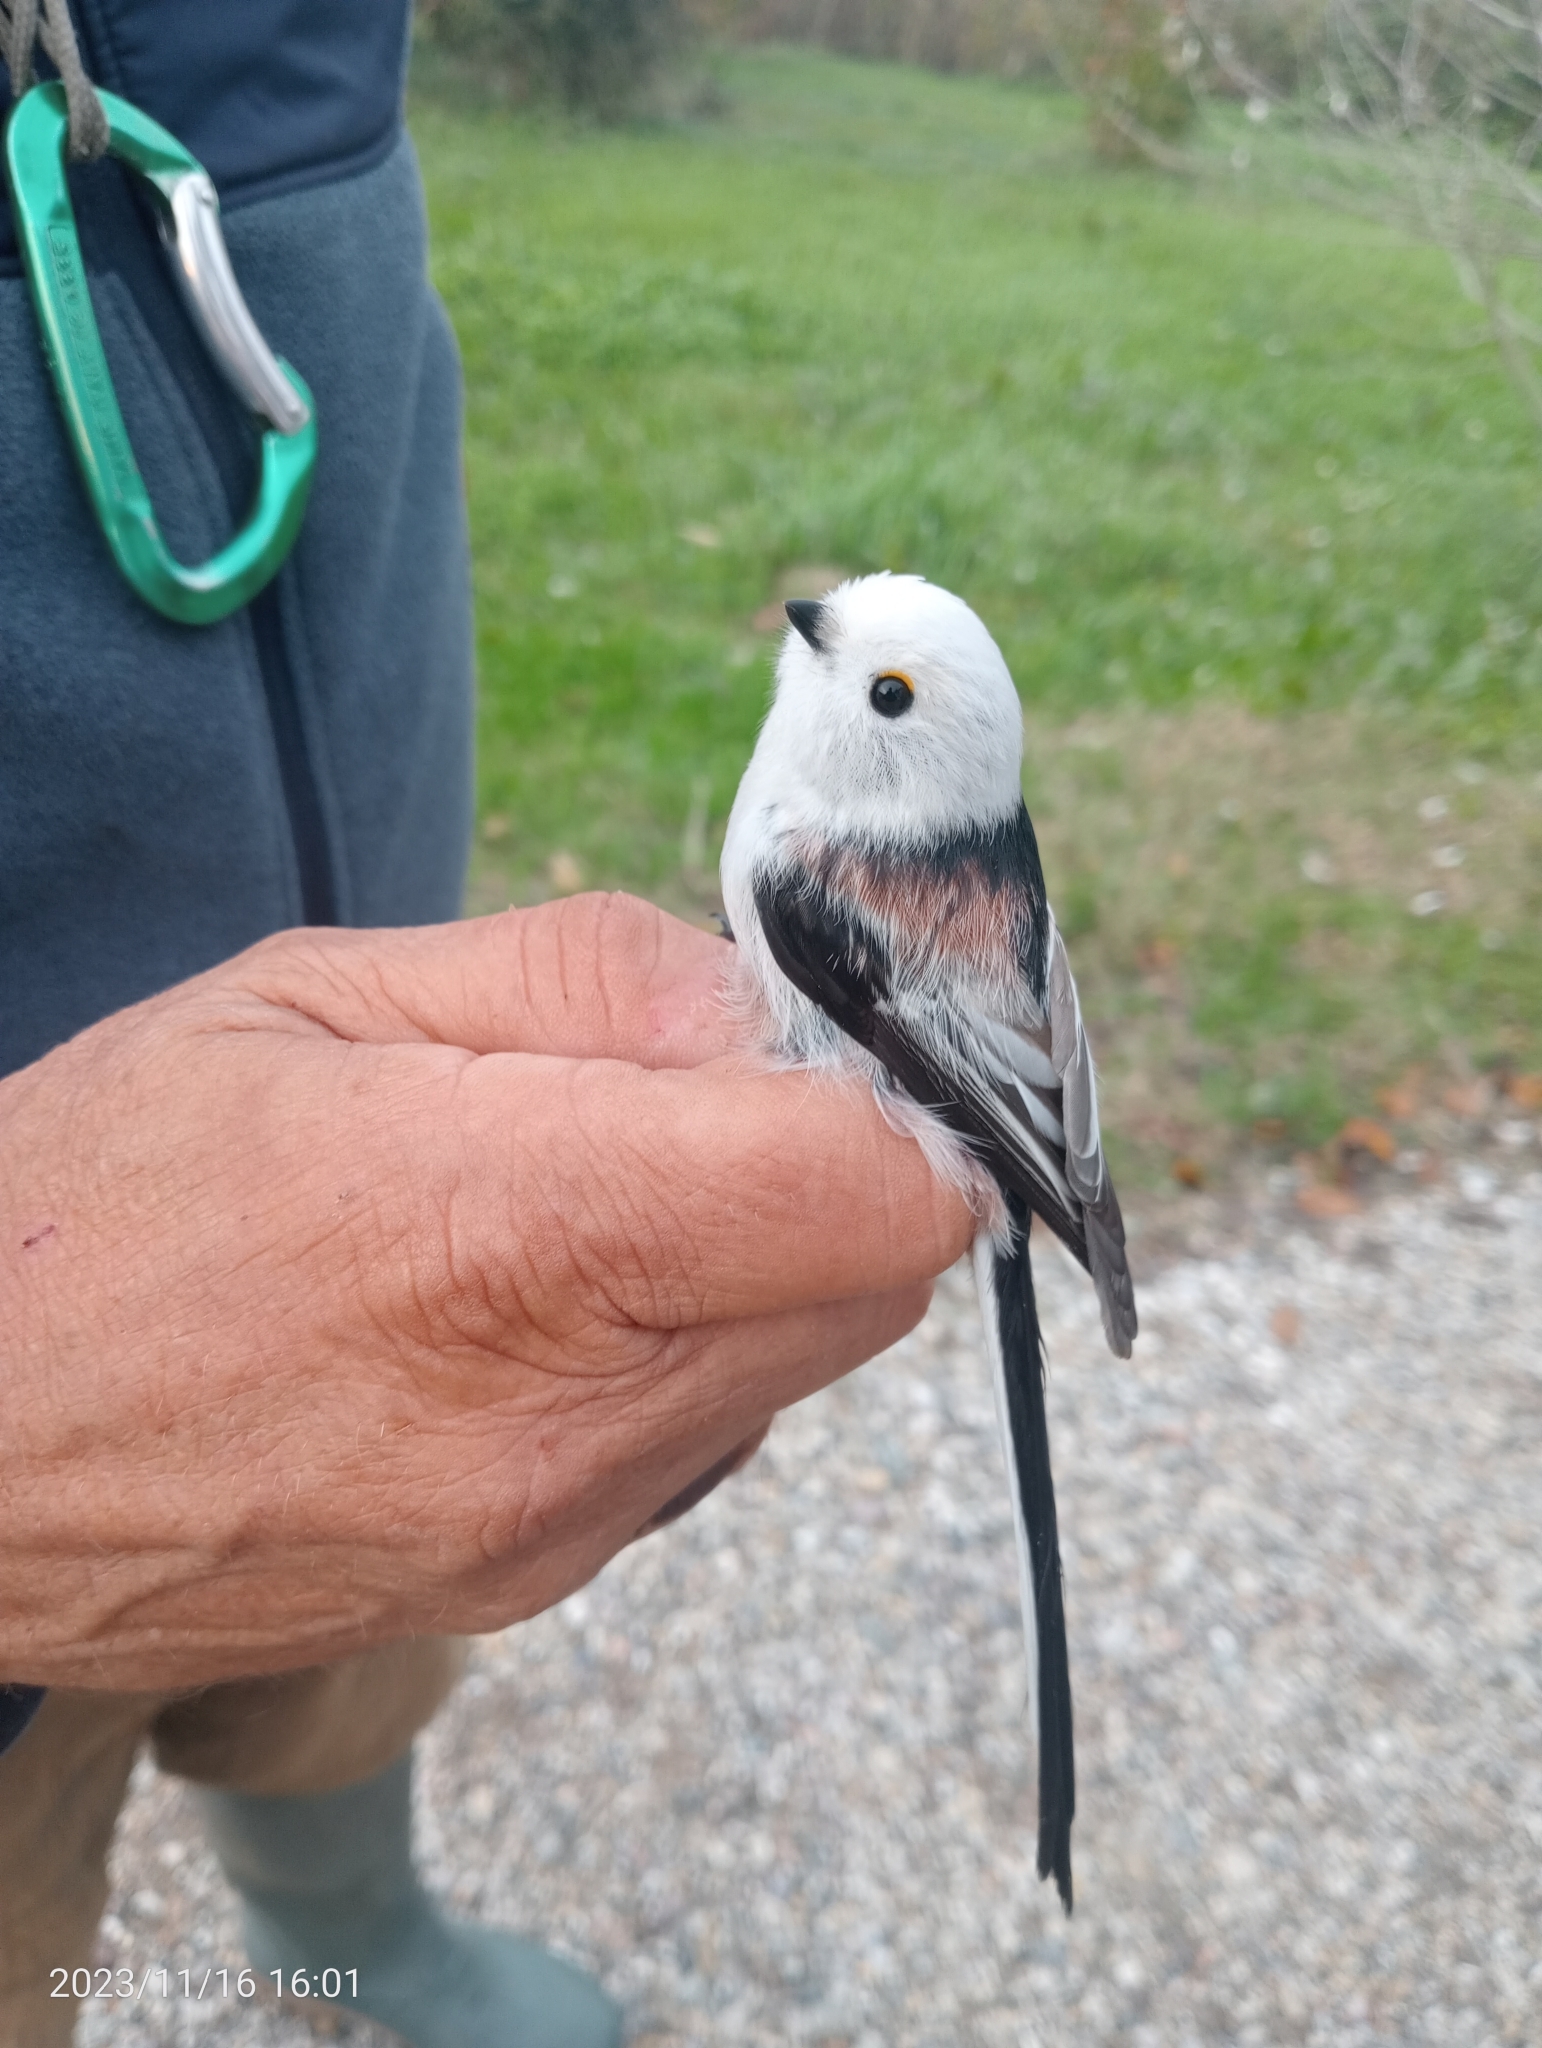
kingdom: Animalia
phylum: Chordata
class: Aves
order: Passeriformes
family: Aegithalidae
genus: Aegithalos
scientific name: Aegithalos caudatus
